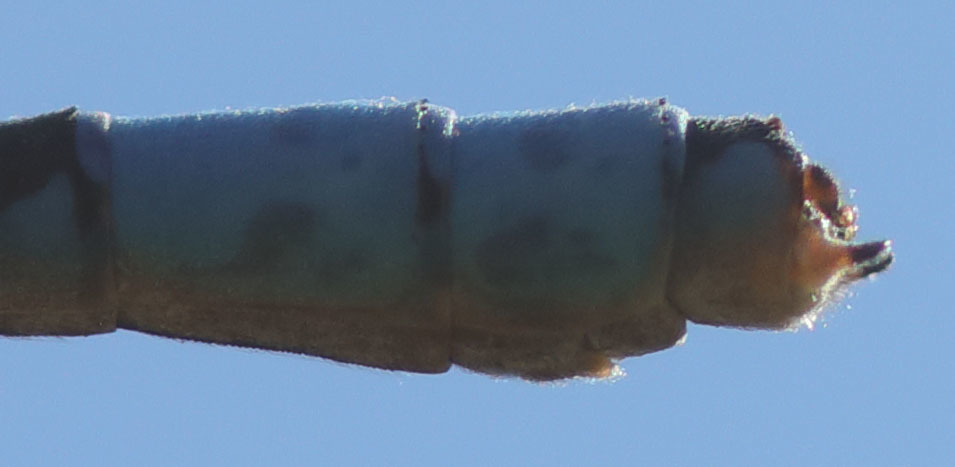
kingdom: Animalia
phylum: Arthropoda
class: Insecta
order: Odonata
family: Coenagrionidae
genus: Enallagma
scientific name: Enallagma annexum
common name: Northern bluet
